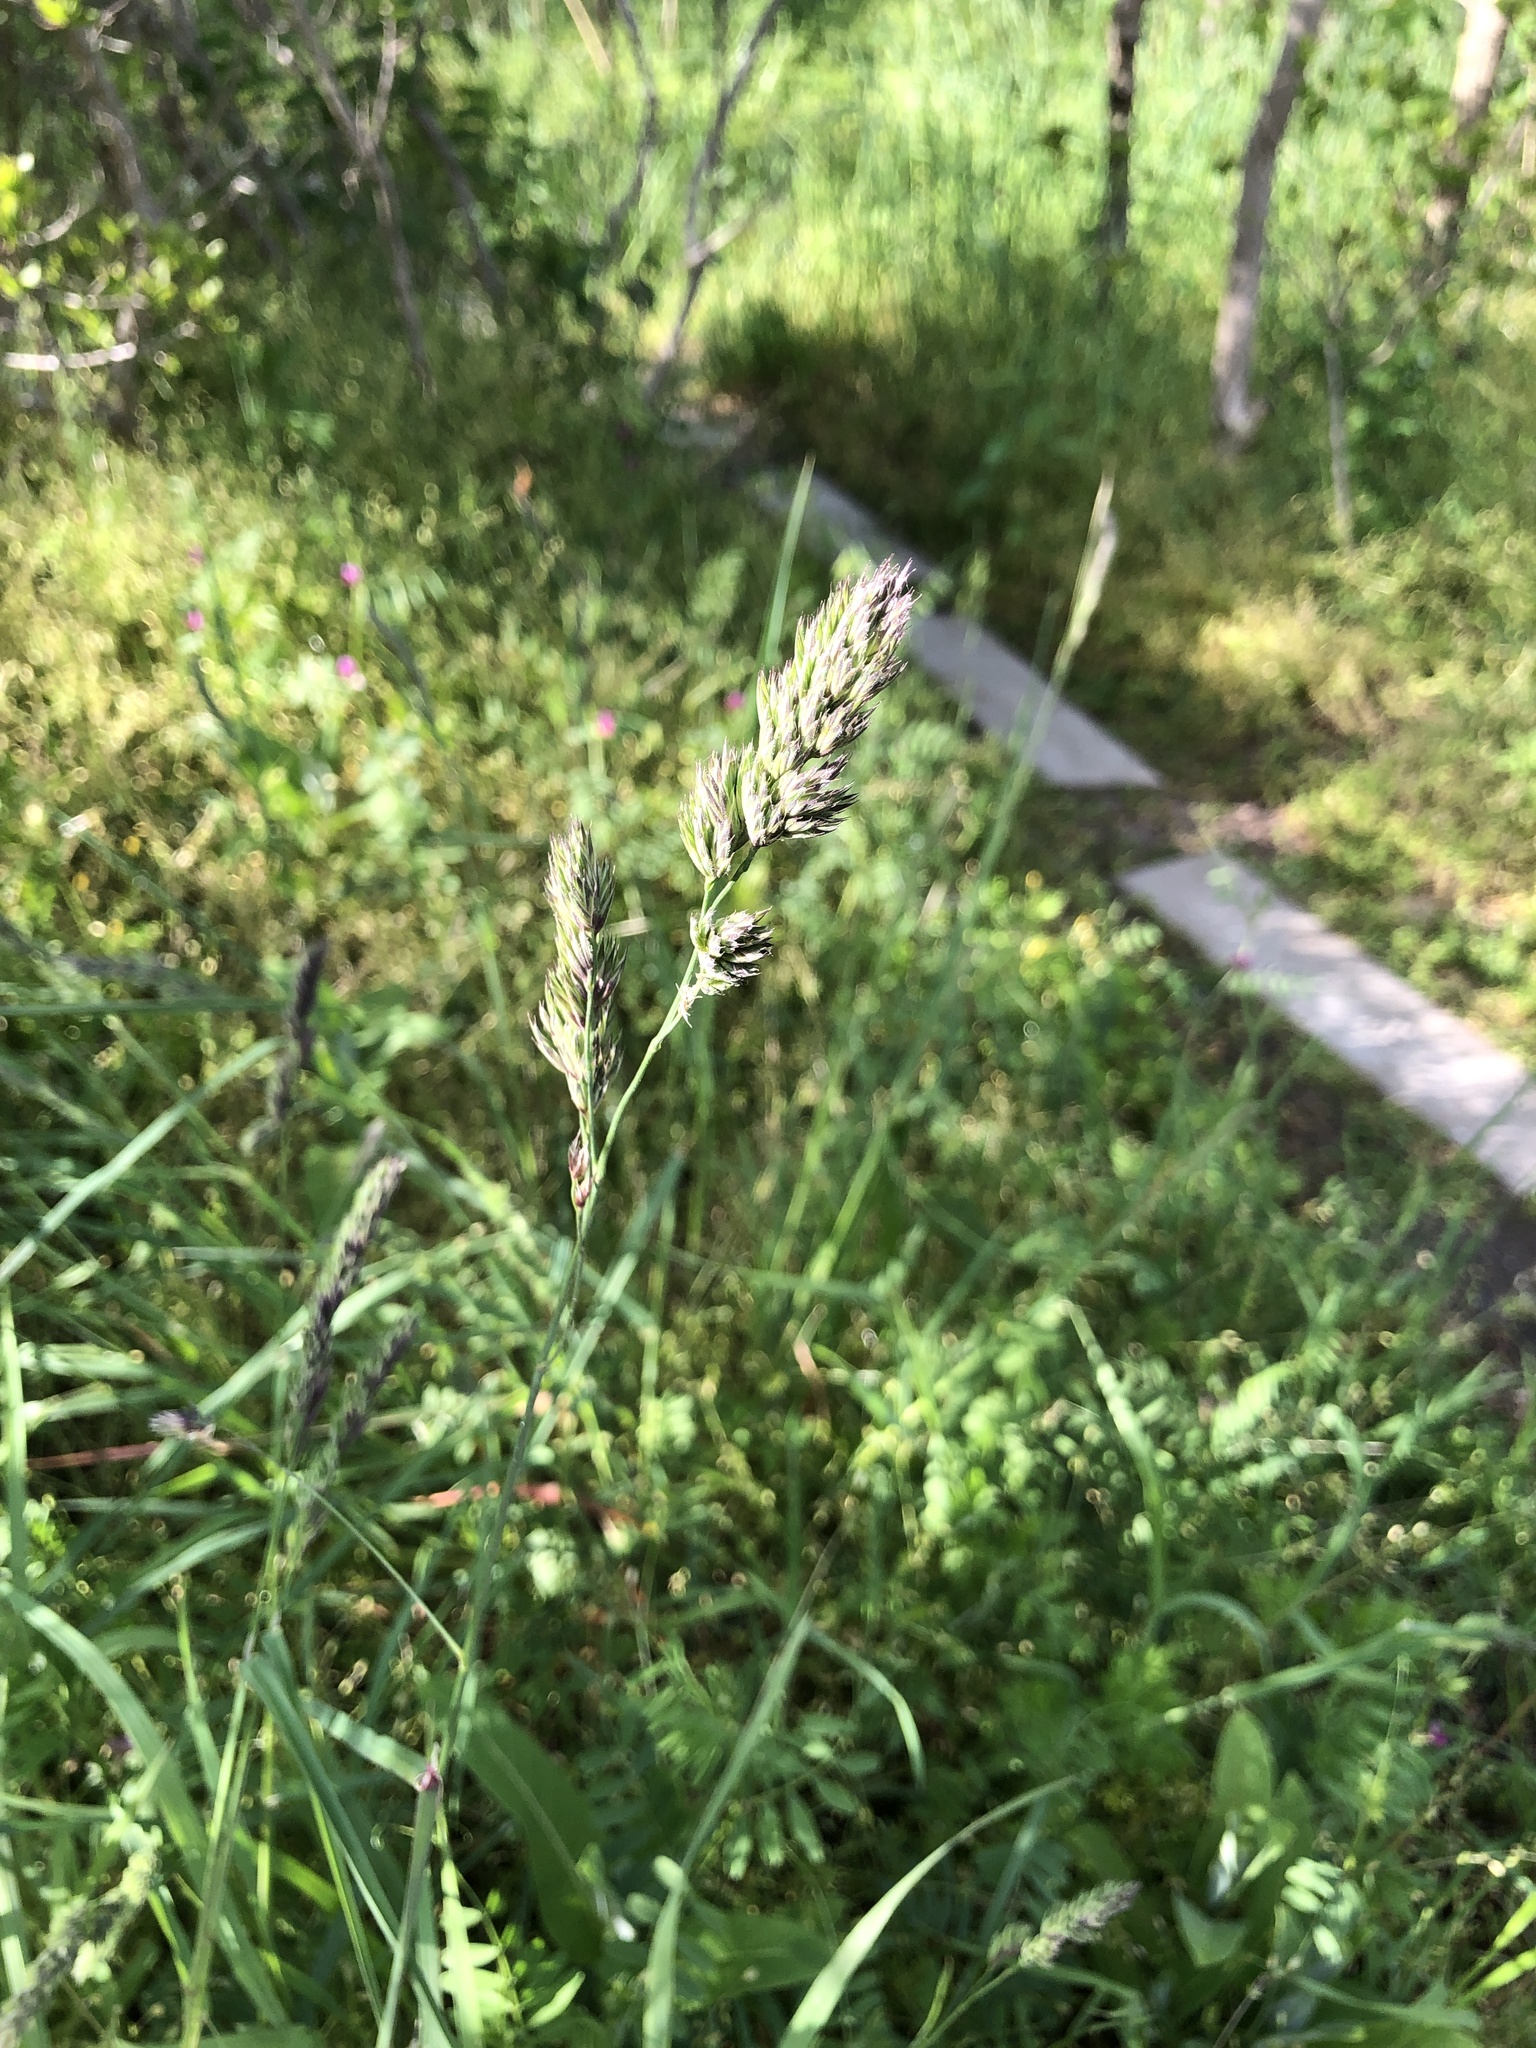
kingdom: Plantae
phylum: Tracheophyta
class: Liliopsida
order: Poales
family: Poaceae
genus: Dactylis
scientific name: Dactylis glomerata
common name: Orchardgrass
